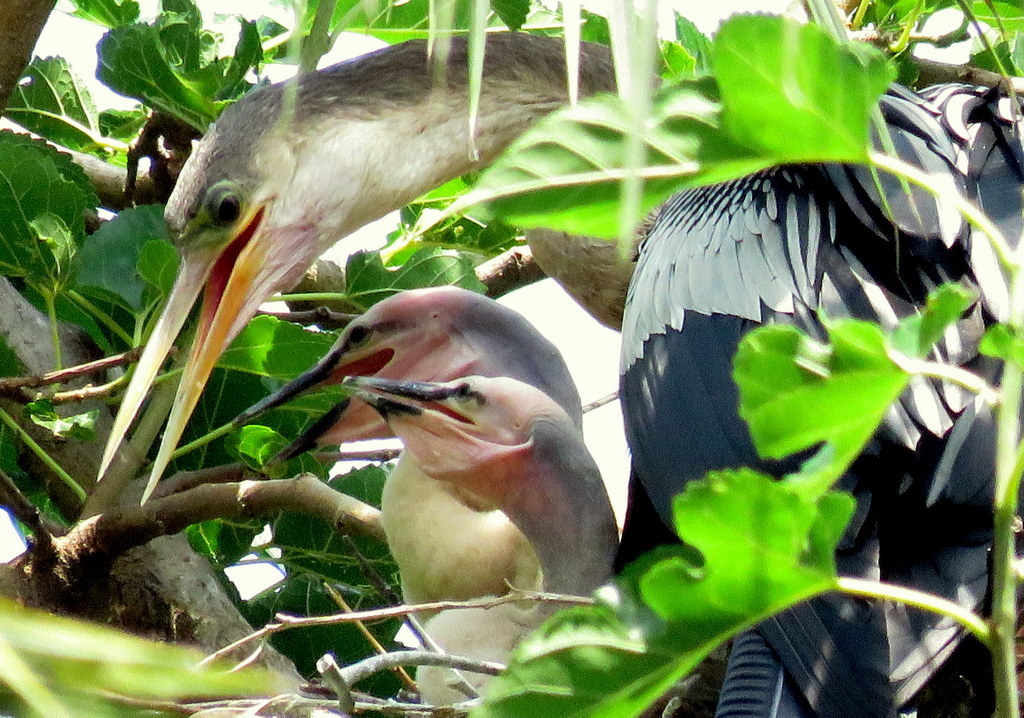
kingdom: Animalia
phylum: Chordata
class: Aves
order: Suliformes
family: Anhingidae
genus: Anhinga
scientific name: Anhinga anhinga
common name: Anhinga
